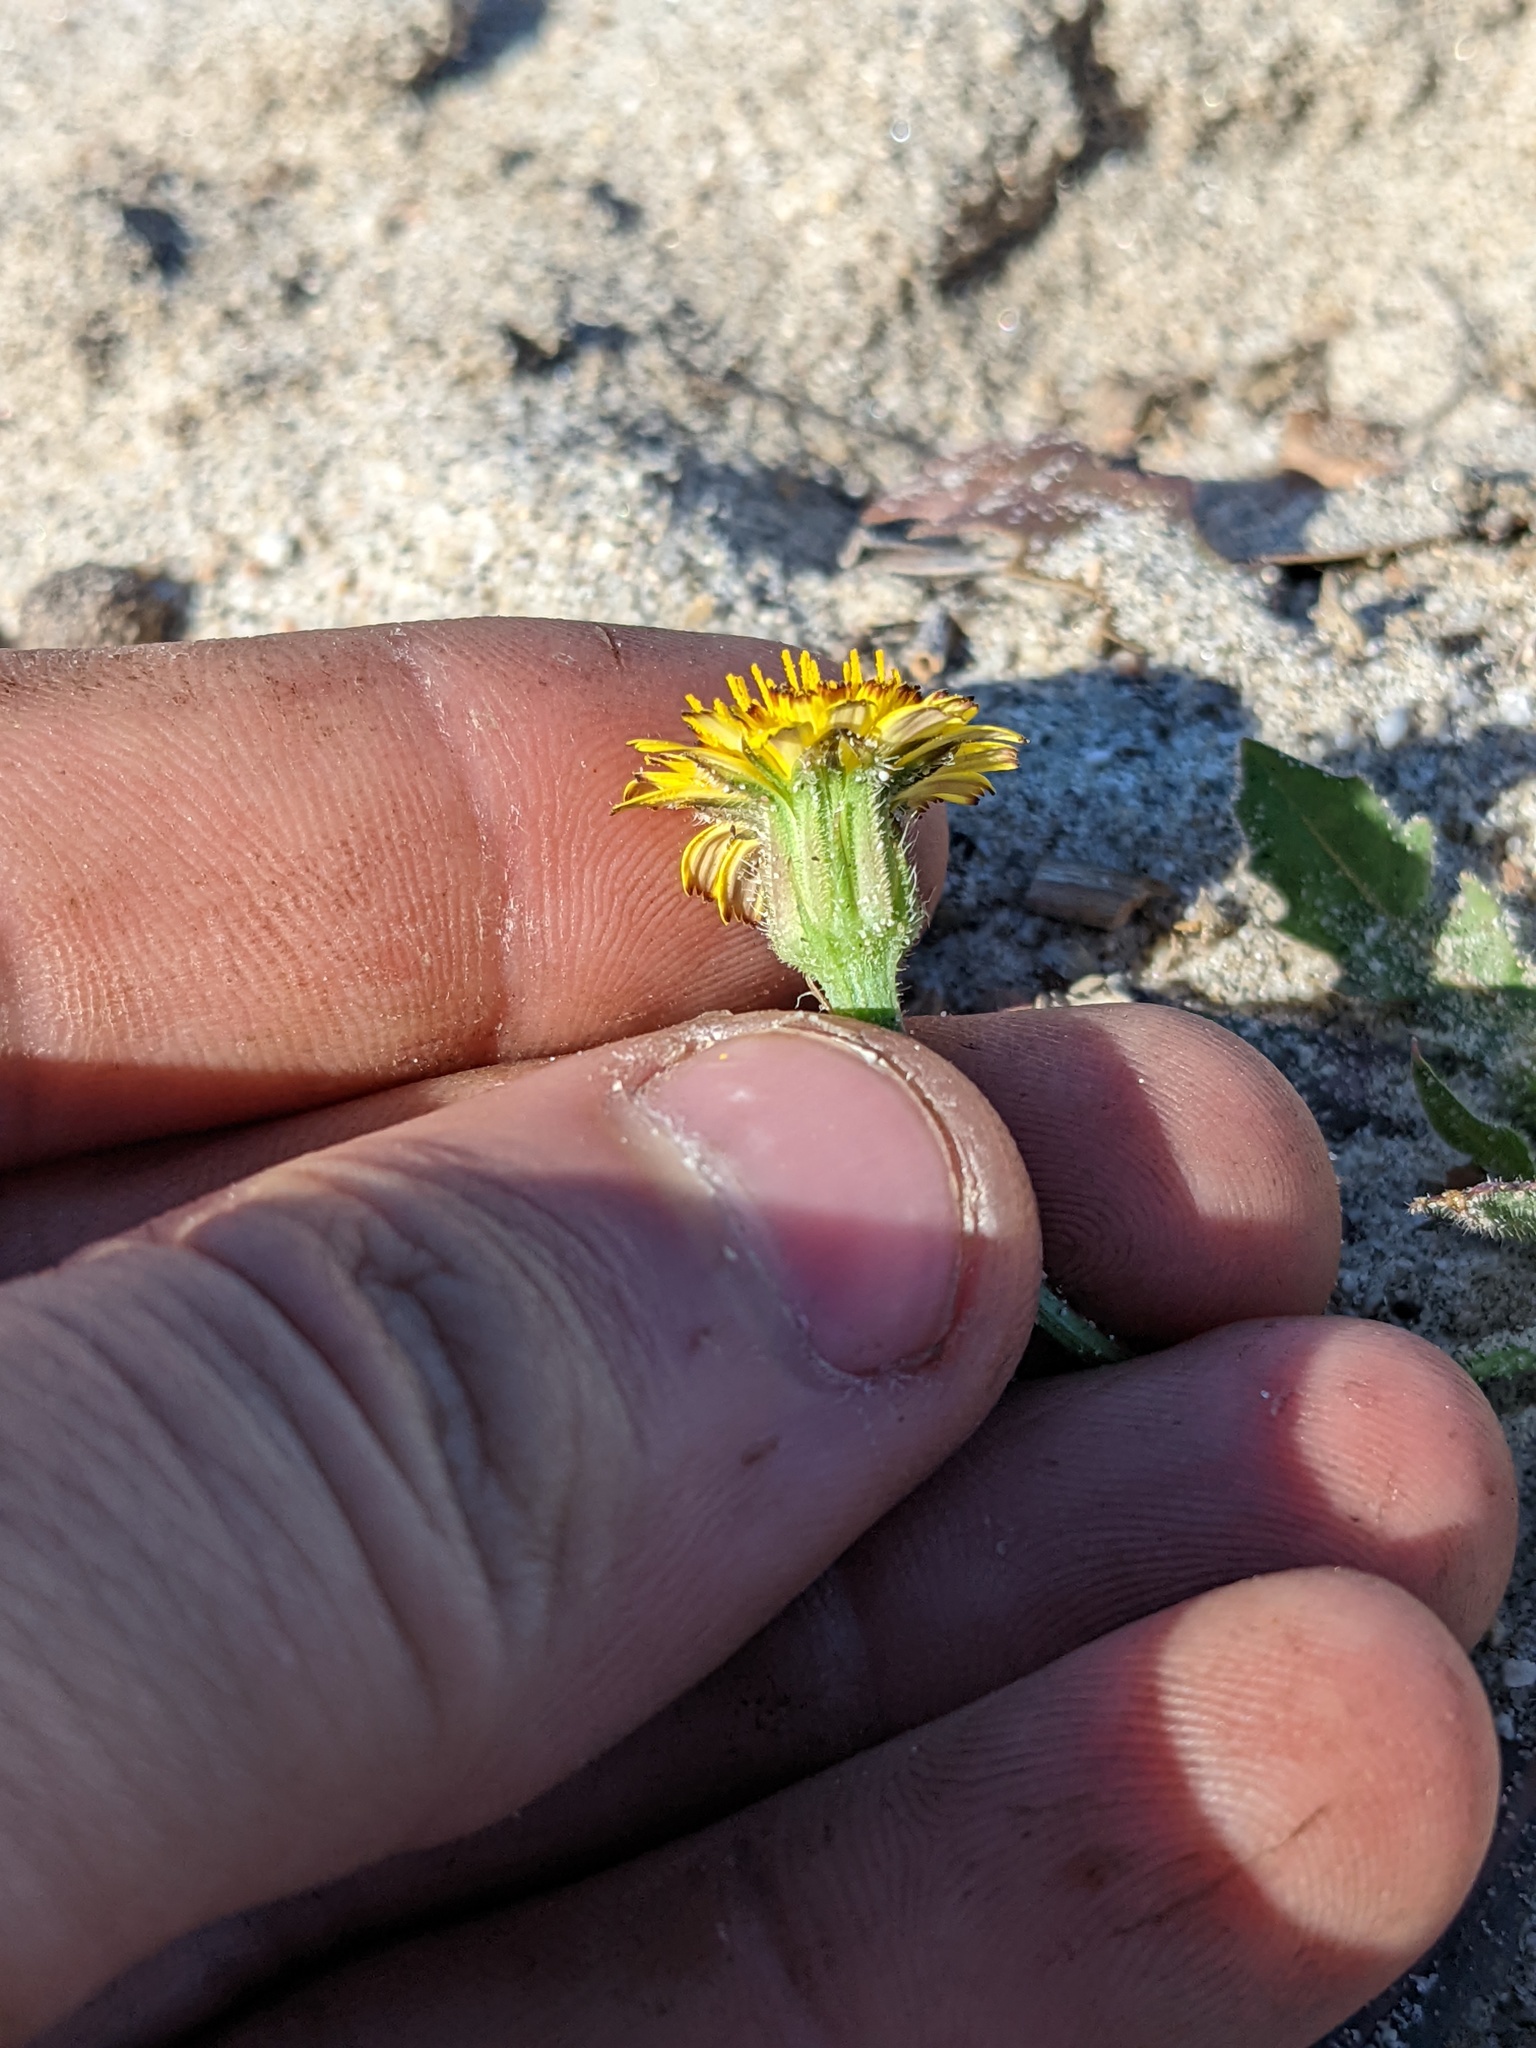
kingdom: Plantae
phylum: Tracheophyta
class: Magnoliopsida
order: Asterales
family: Asteraceae
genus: Hedypnois
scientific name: Hedypnois rhagadioloides
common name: Cretan weed
